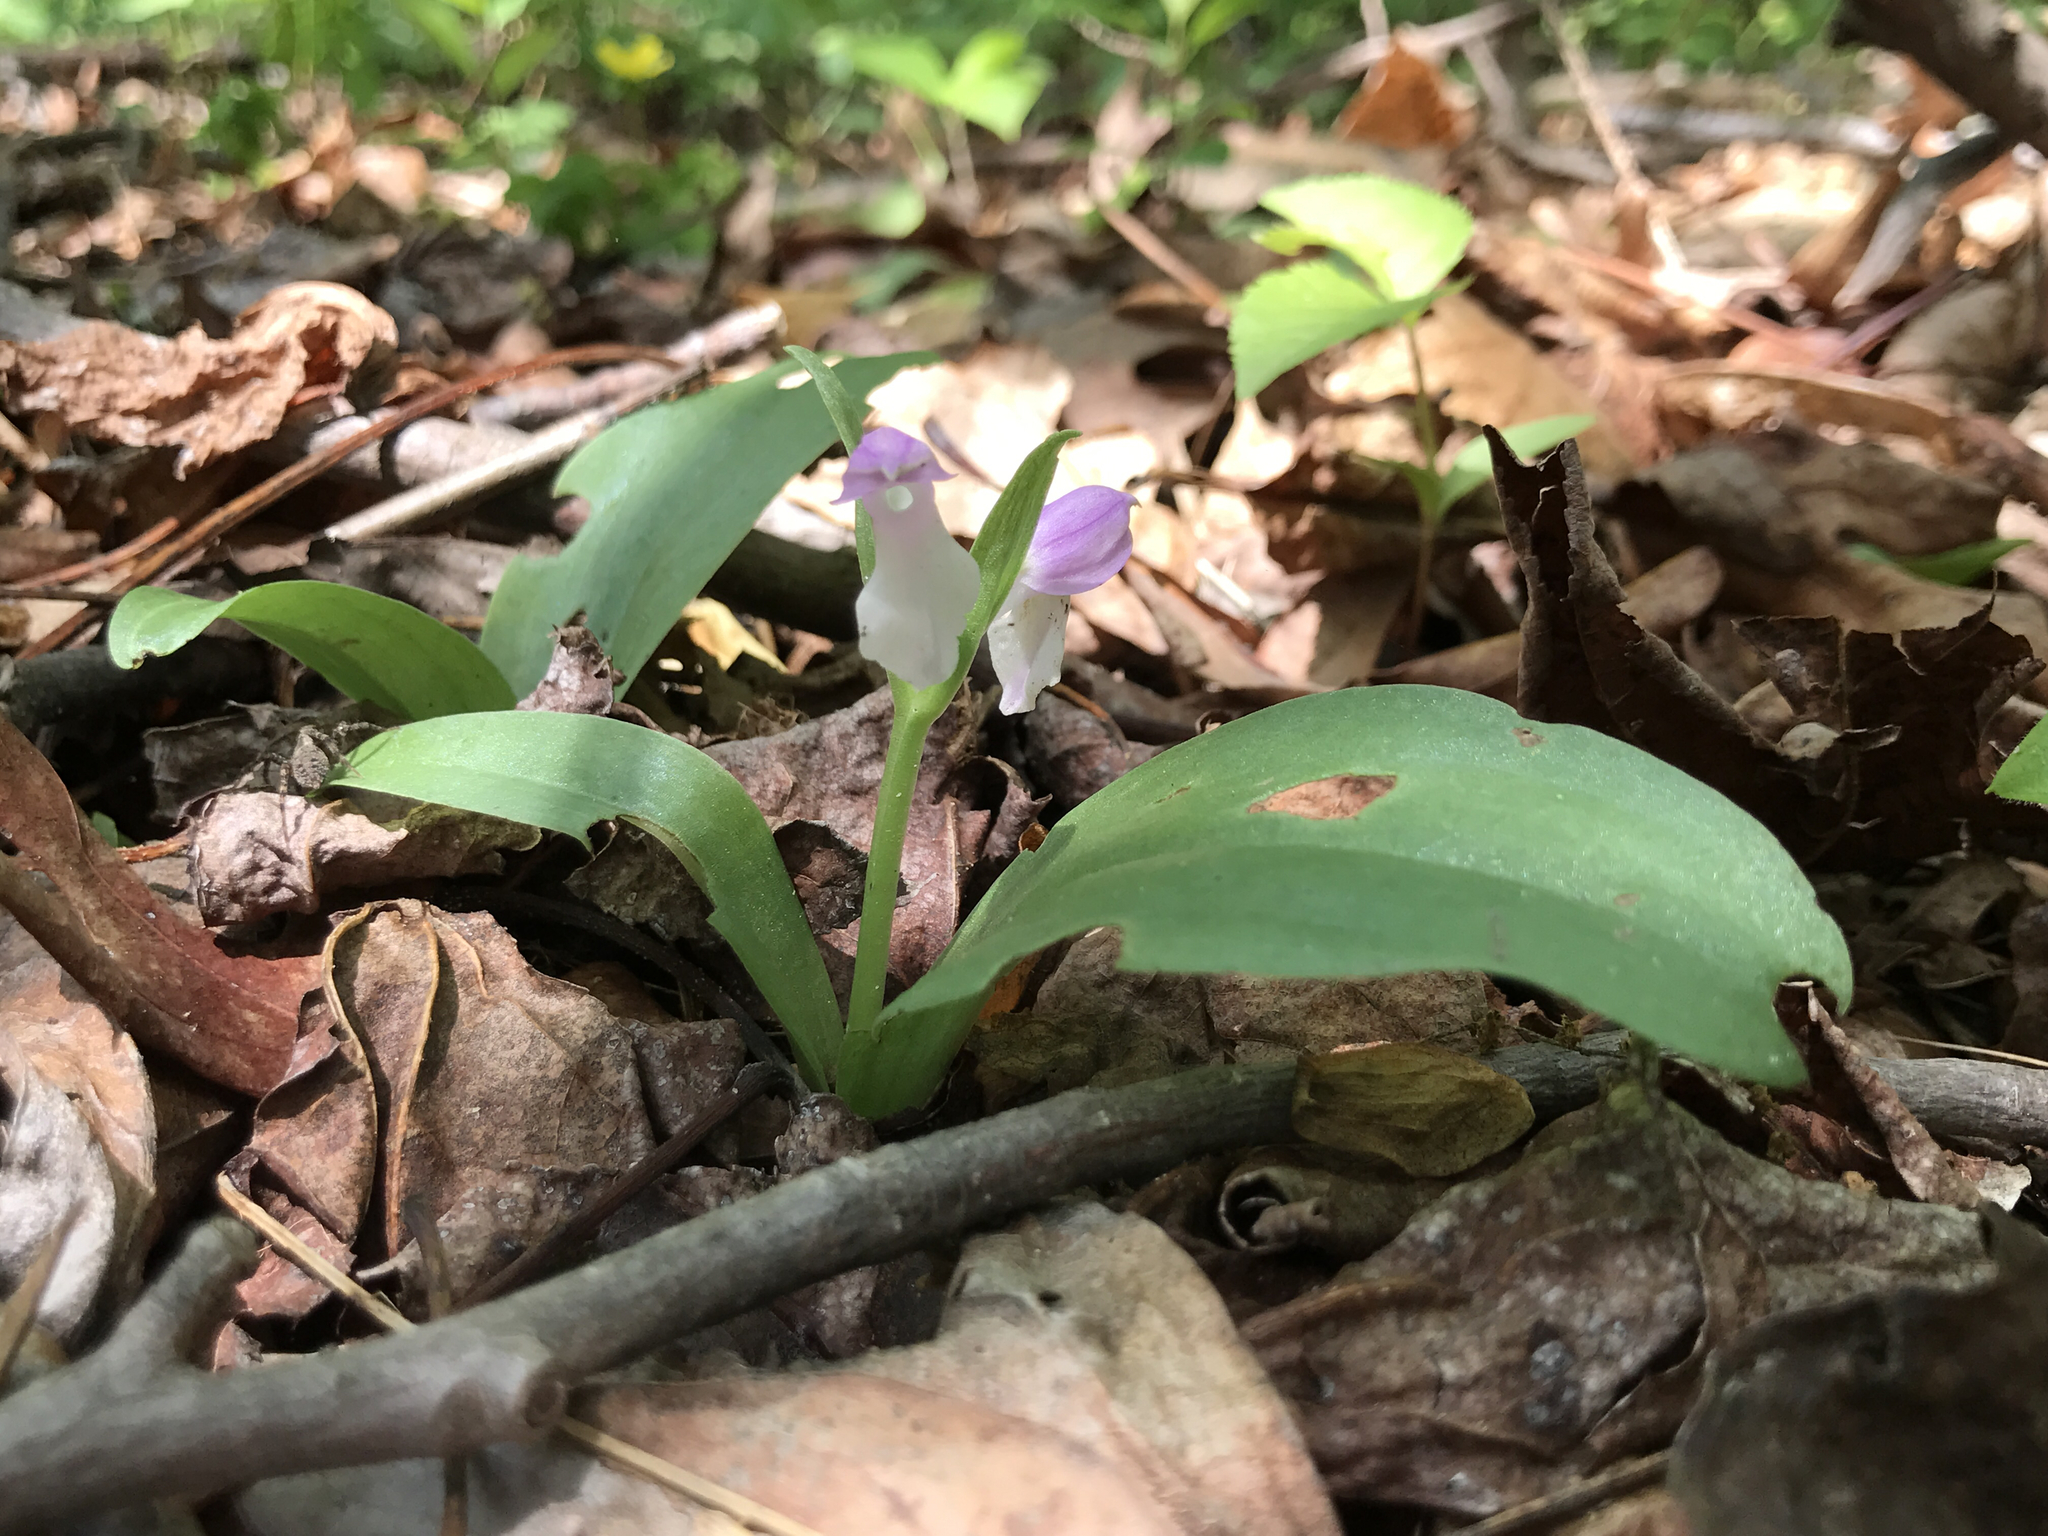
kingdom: Plantae
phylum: Tracheophyta
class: Liliopsida
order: Asparagales
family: Orchidaceae
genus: Galearis
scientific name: Galearis spectabilis
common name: Purple-hooded orchis
